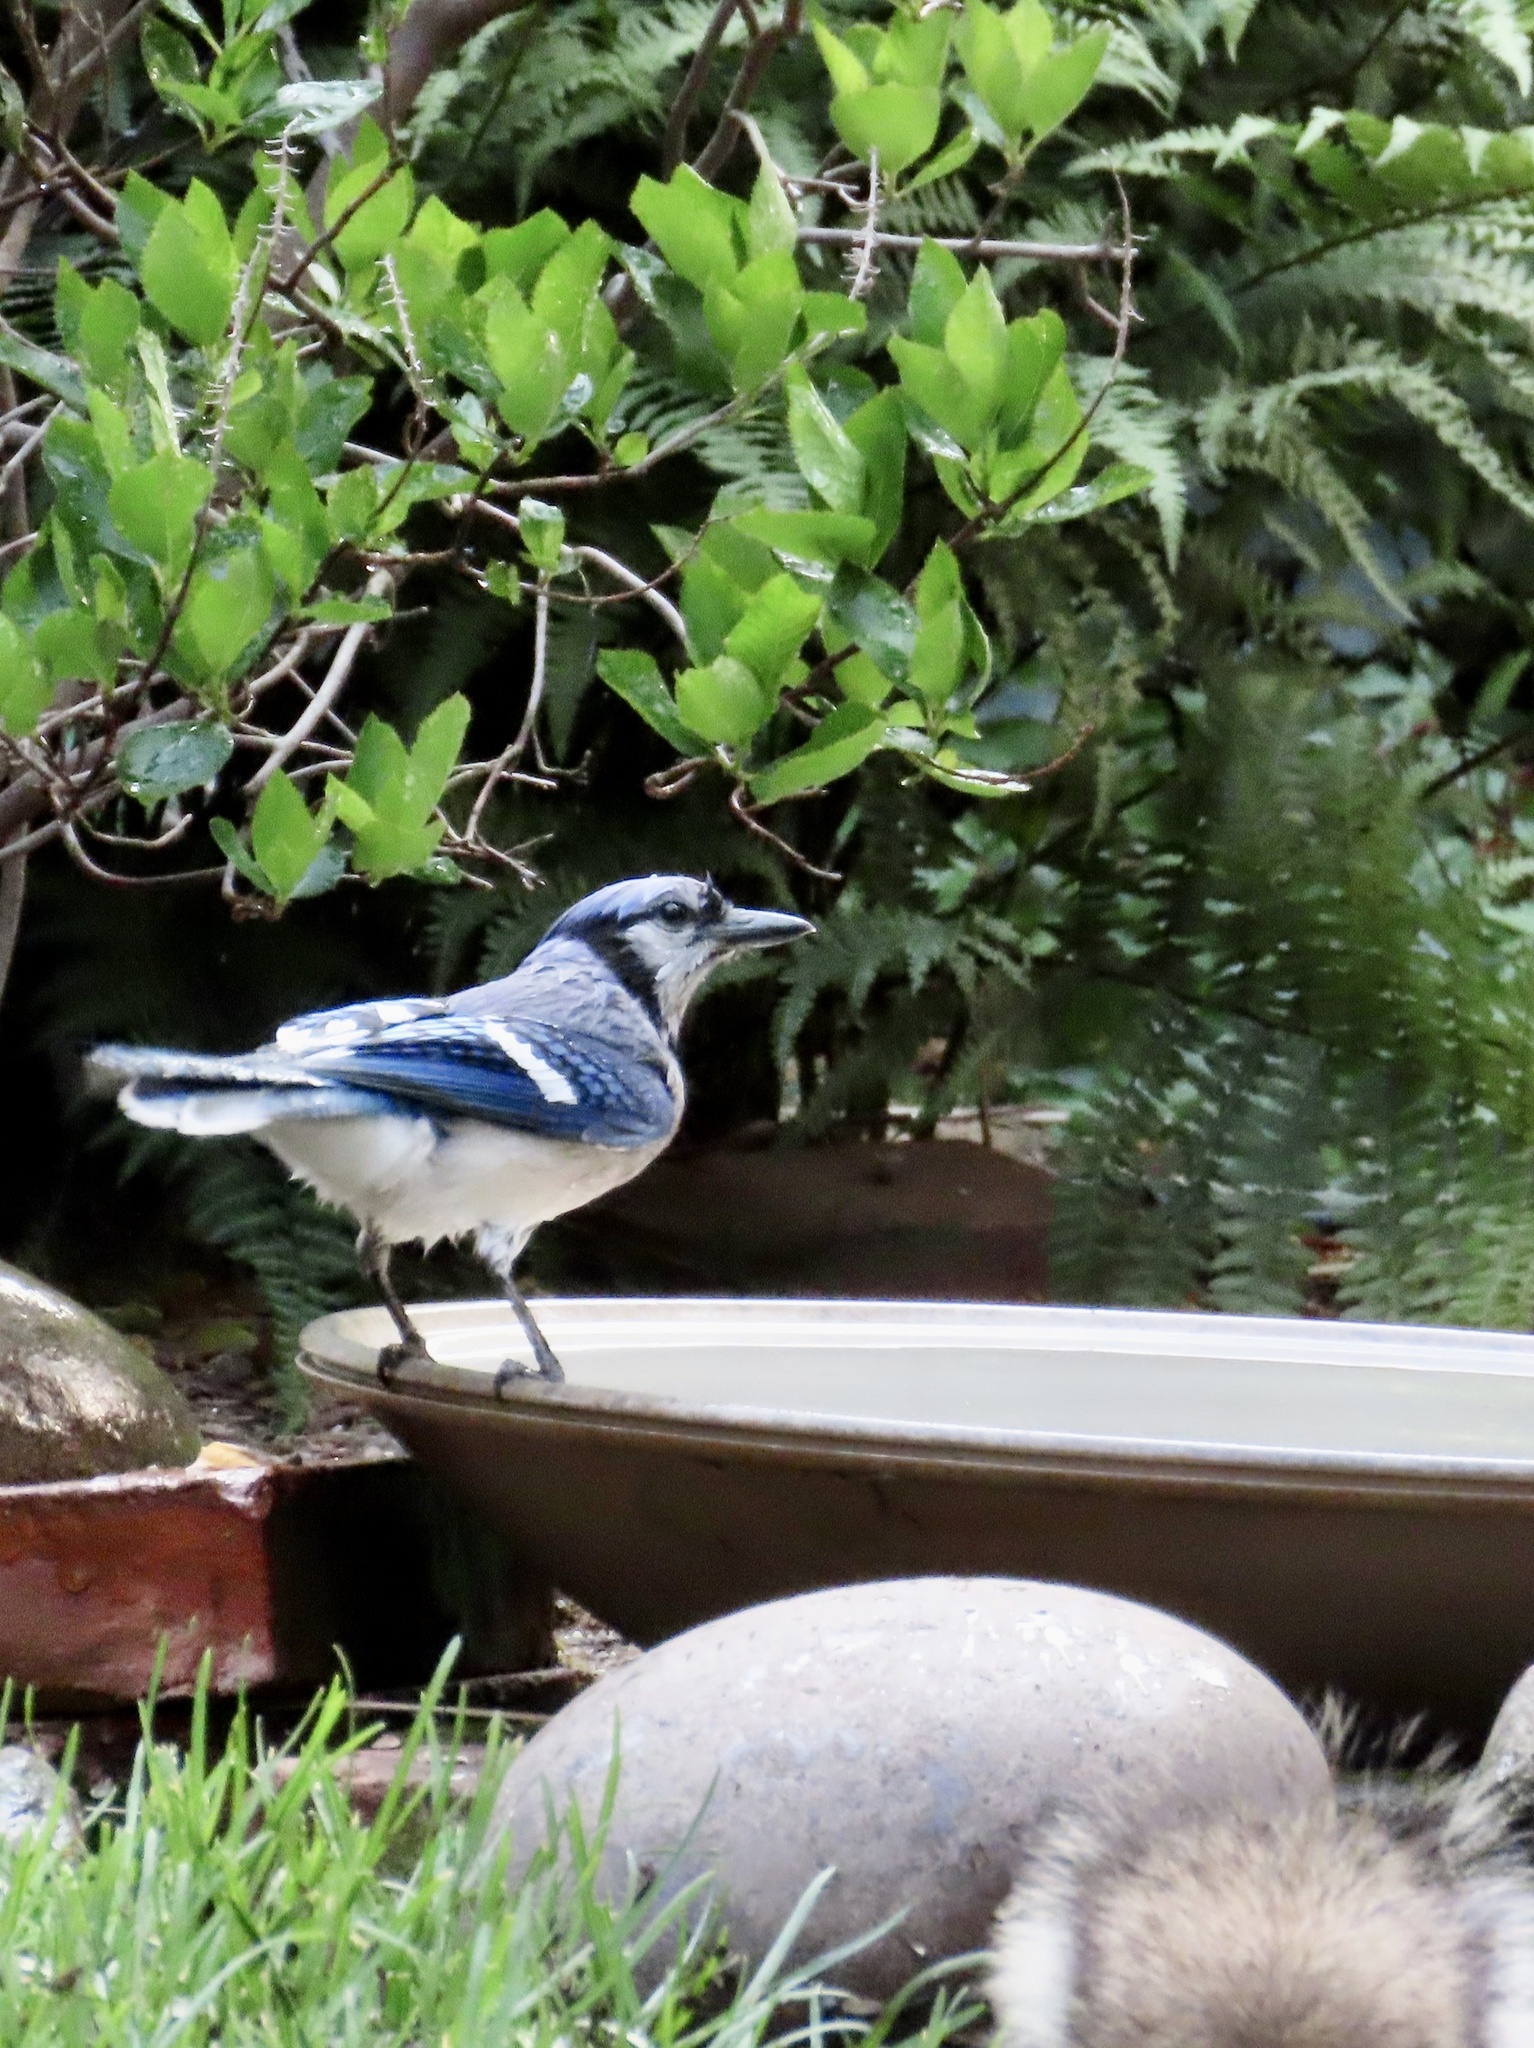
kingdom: Animalia
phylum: Chordata
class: Aves
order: Passeriformes
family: Corvidae
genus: Cyanocitta
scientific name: Cyanocitta cristata
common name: Blue jay
